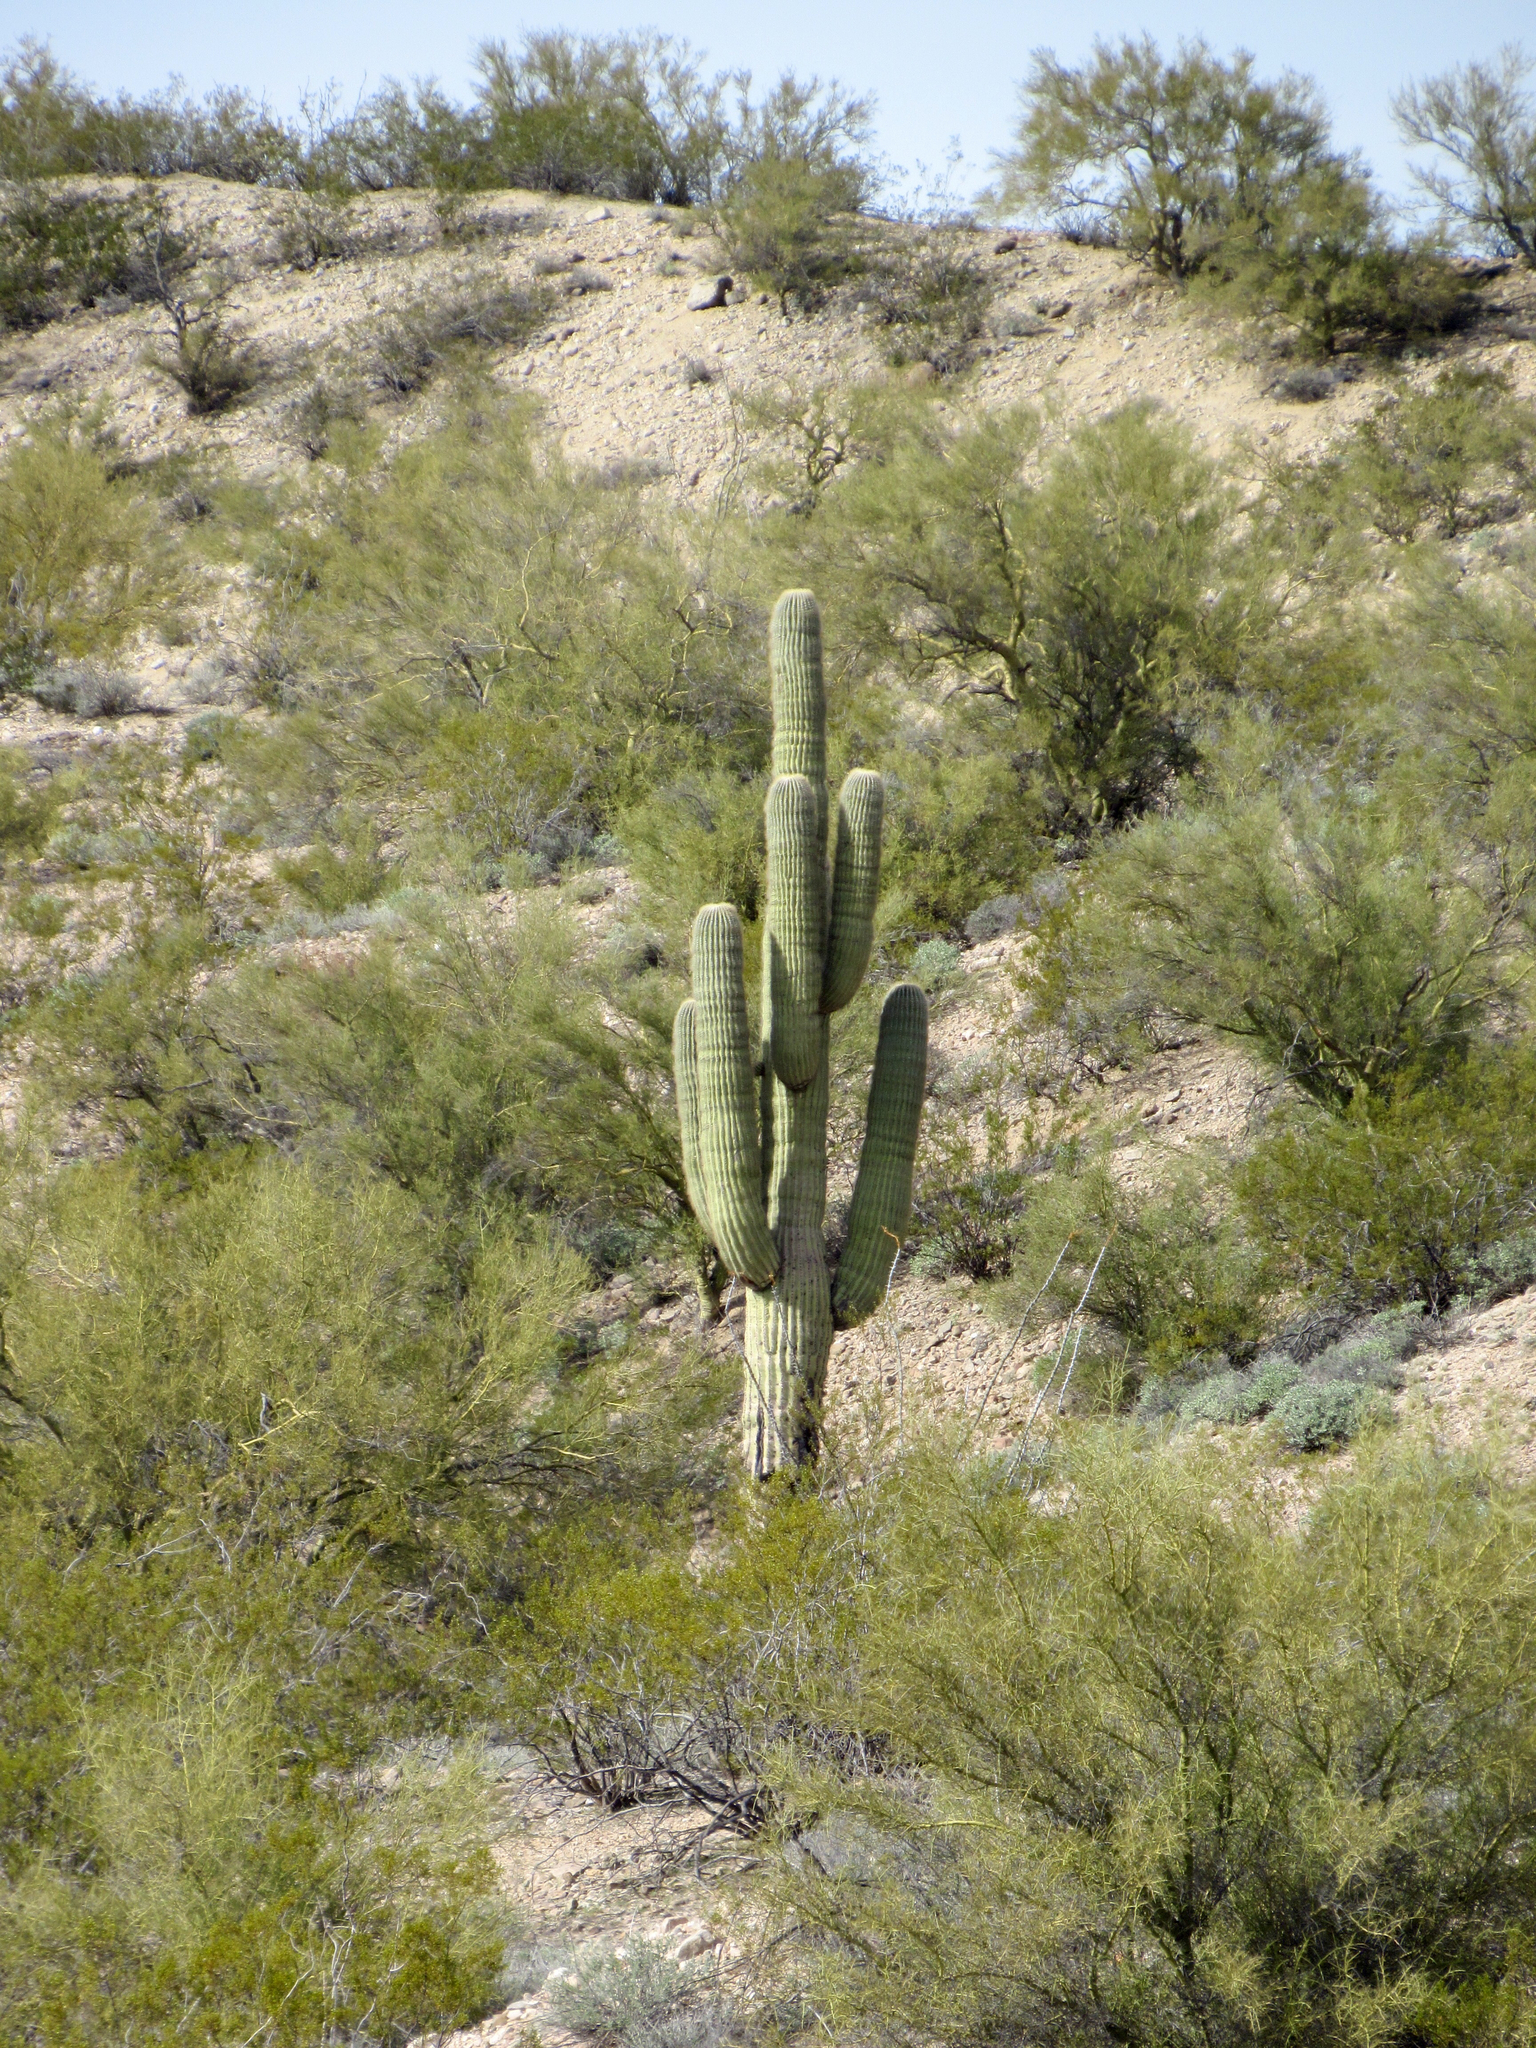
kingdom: Plantae
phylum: Tracheophyta
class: Magnoliopsida
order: Caryophyllales
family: Cactaceae
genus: Carnegiea
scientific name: Carnegiea gigantea
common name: Saguaro
